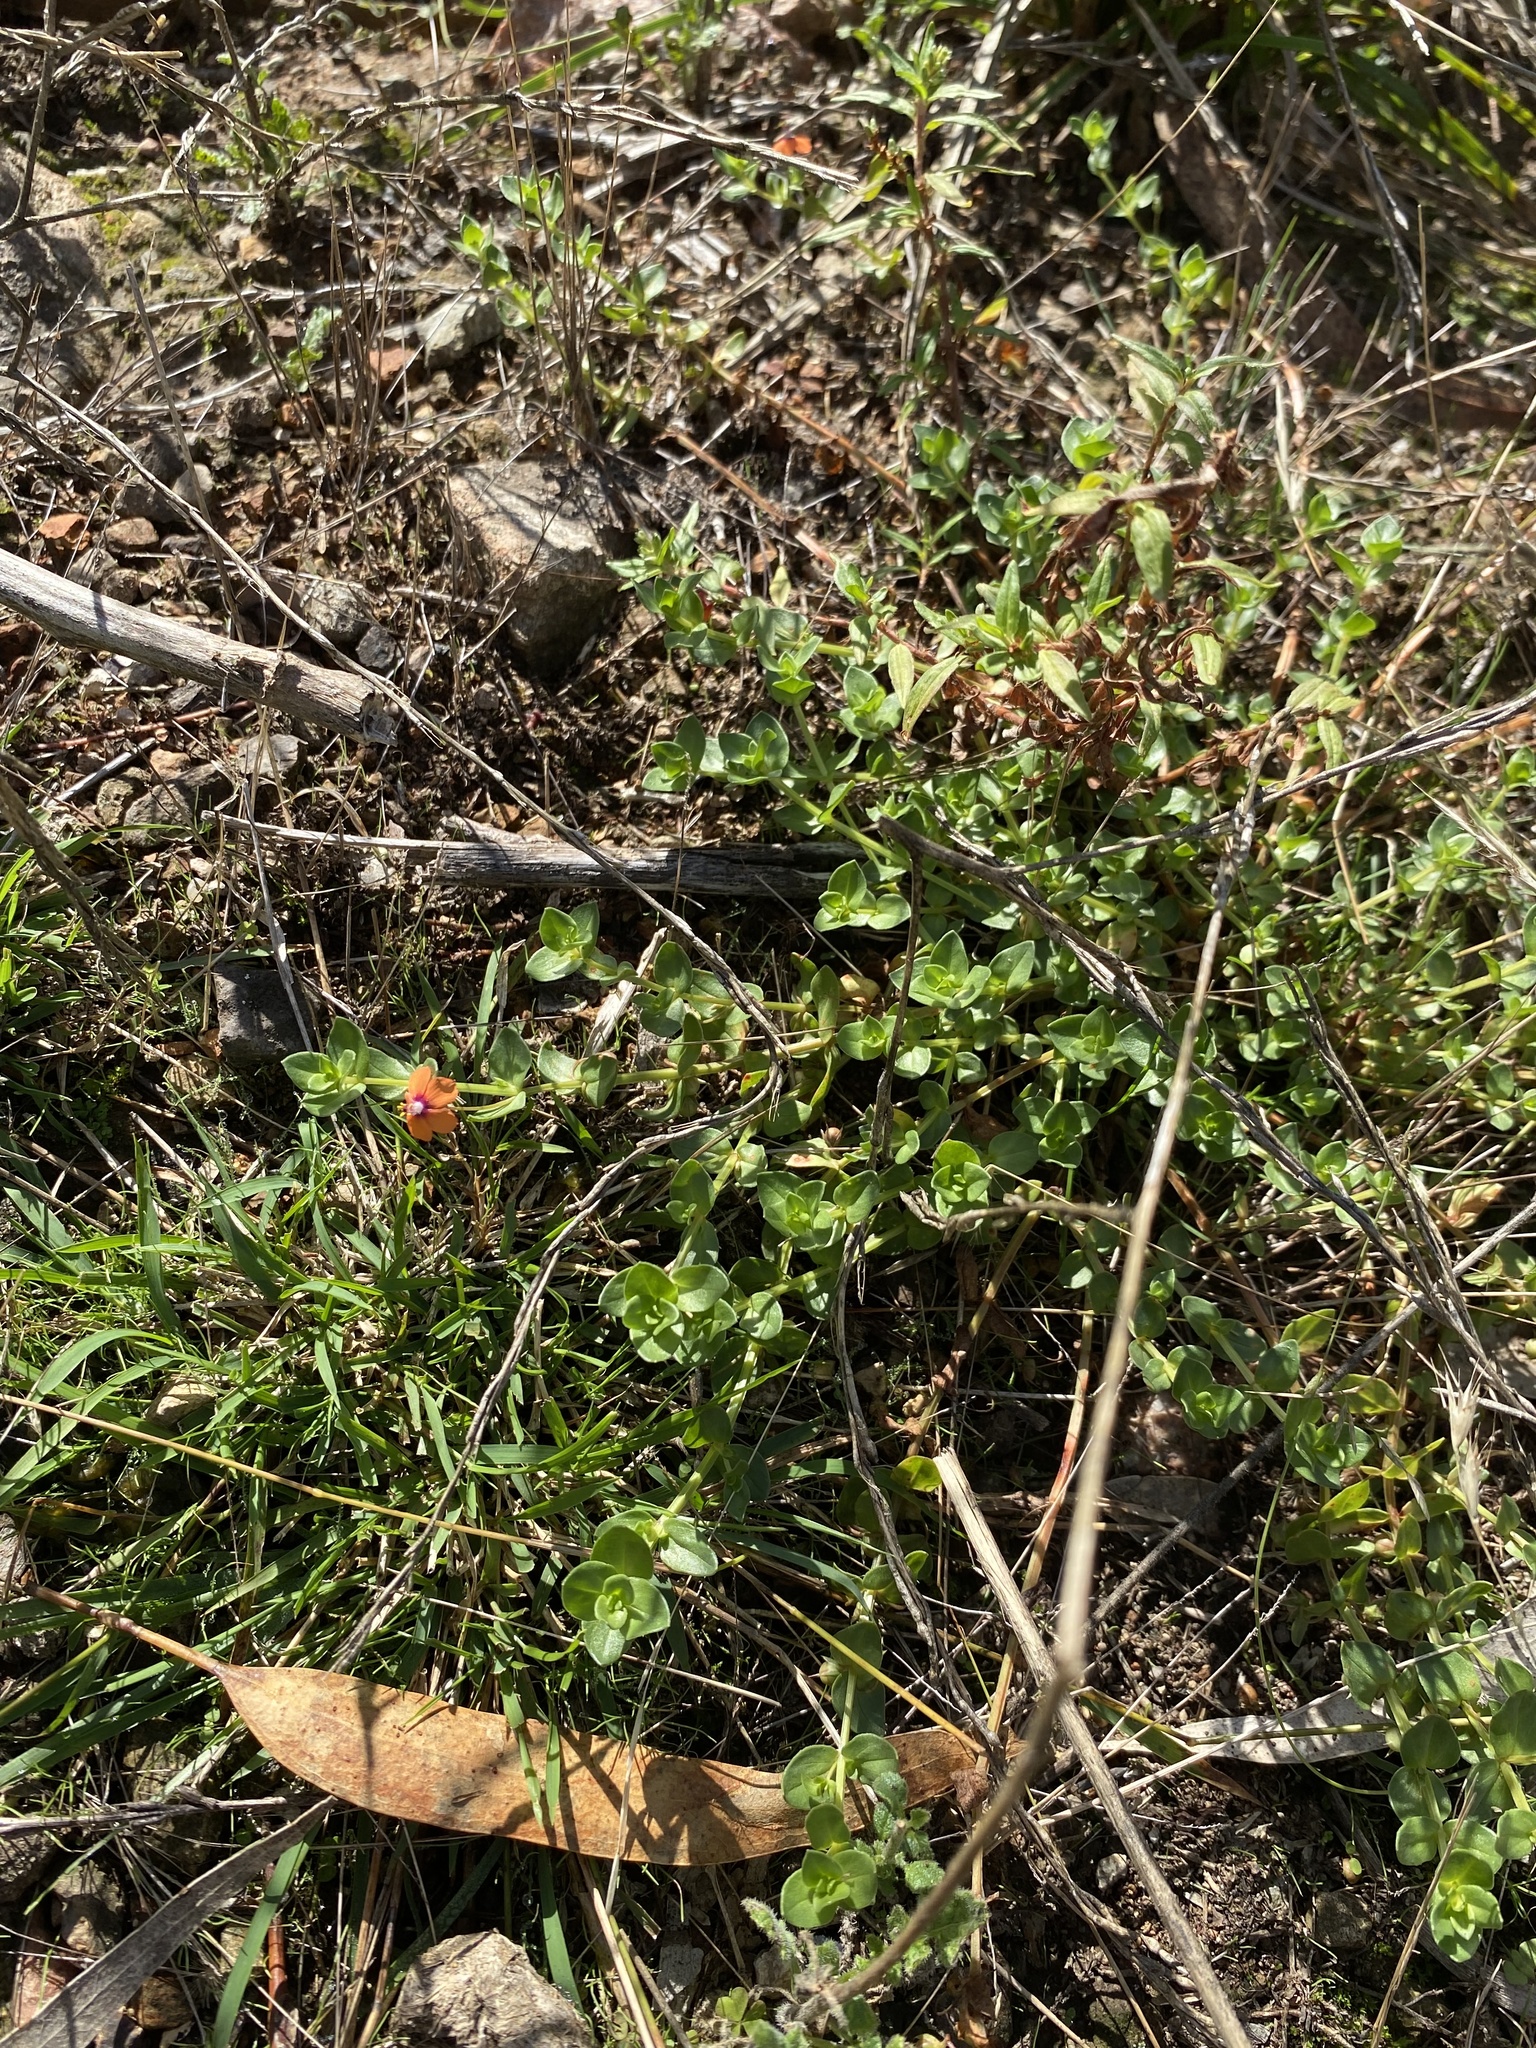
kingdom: Plantae
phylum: Tracheophyta
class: Magnoliopsida
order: Ericales
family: Primulaceae
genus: Lysimachia
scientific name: Lysimachia arvensis
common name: Scarlet pimpernel
